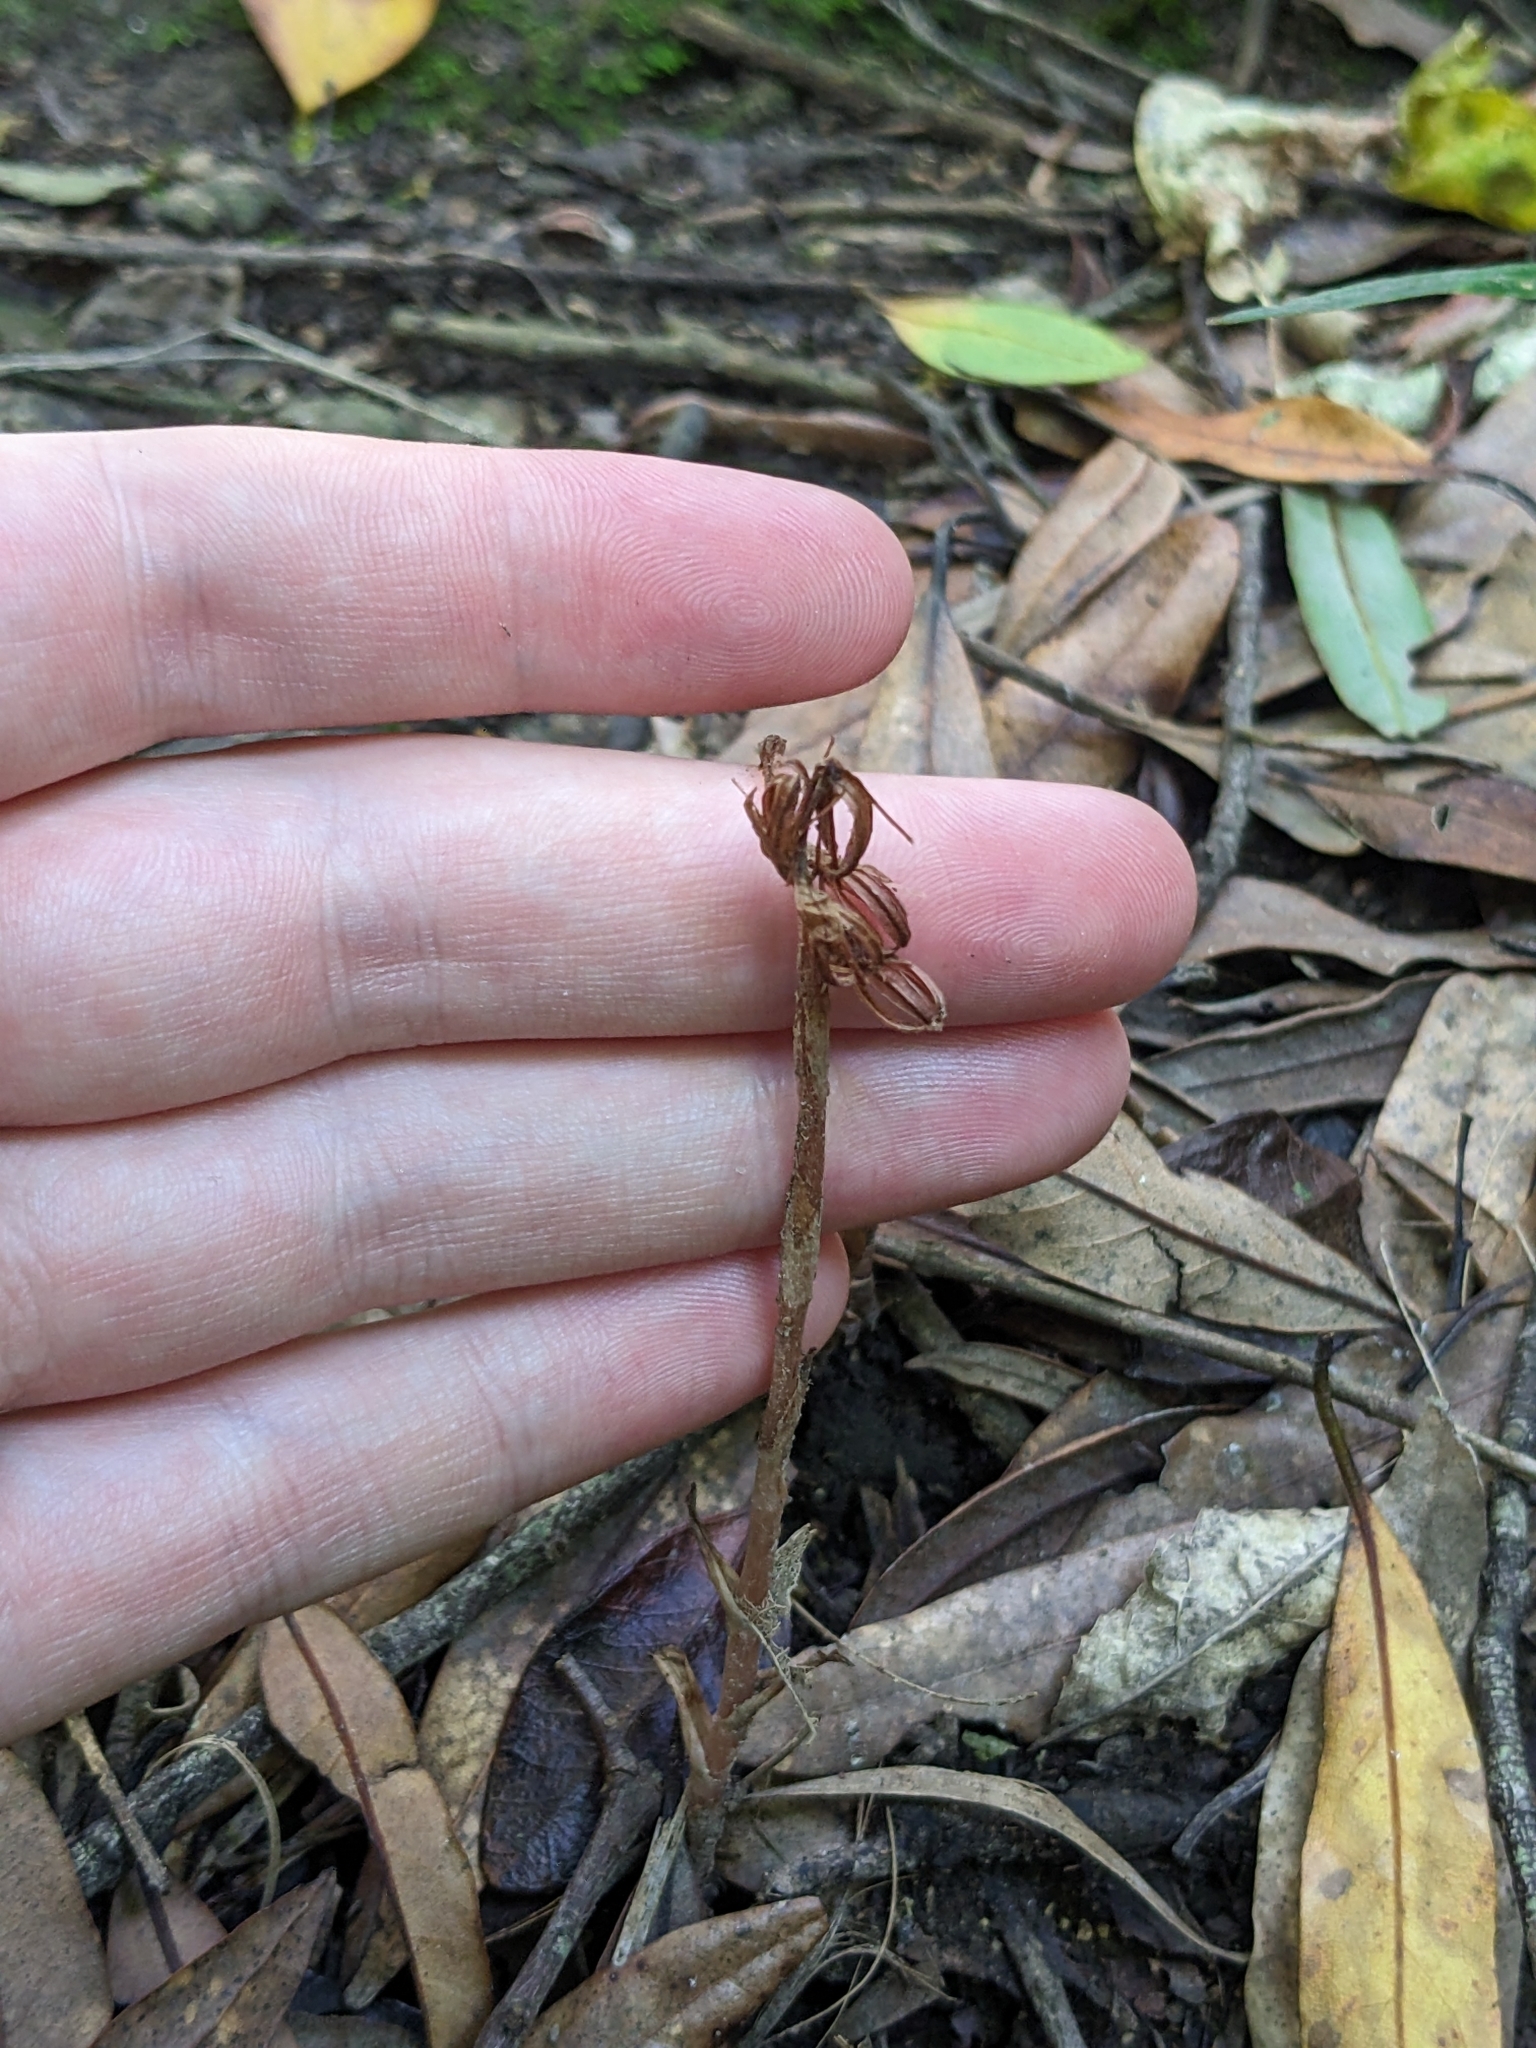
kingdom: Plantae
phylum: Tracheophyta
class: Liliopsida
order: Asparagales
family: Orchidaceae
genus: Danhatchia
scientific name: Danhatchia australis
